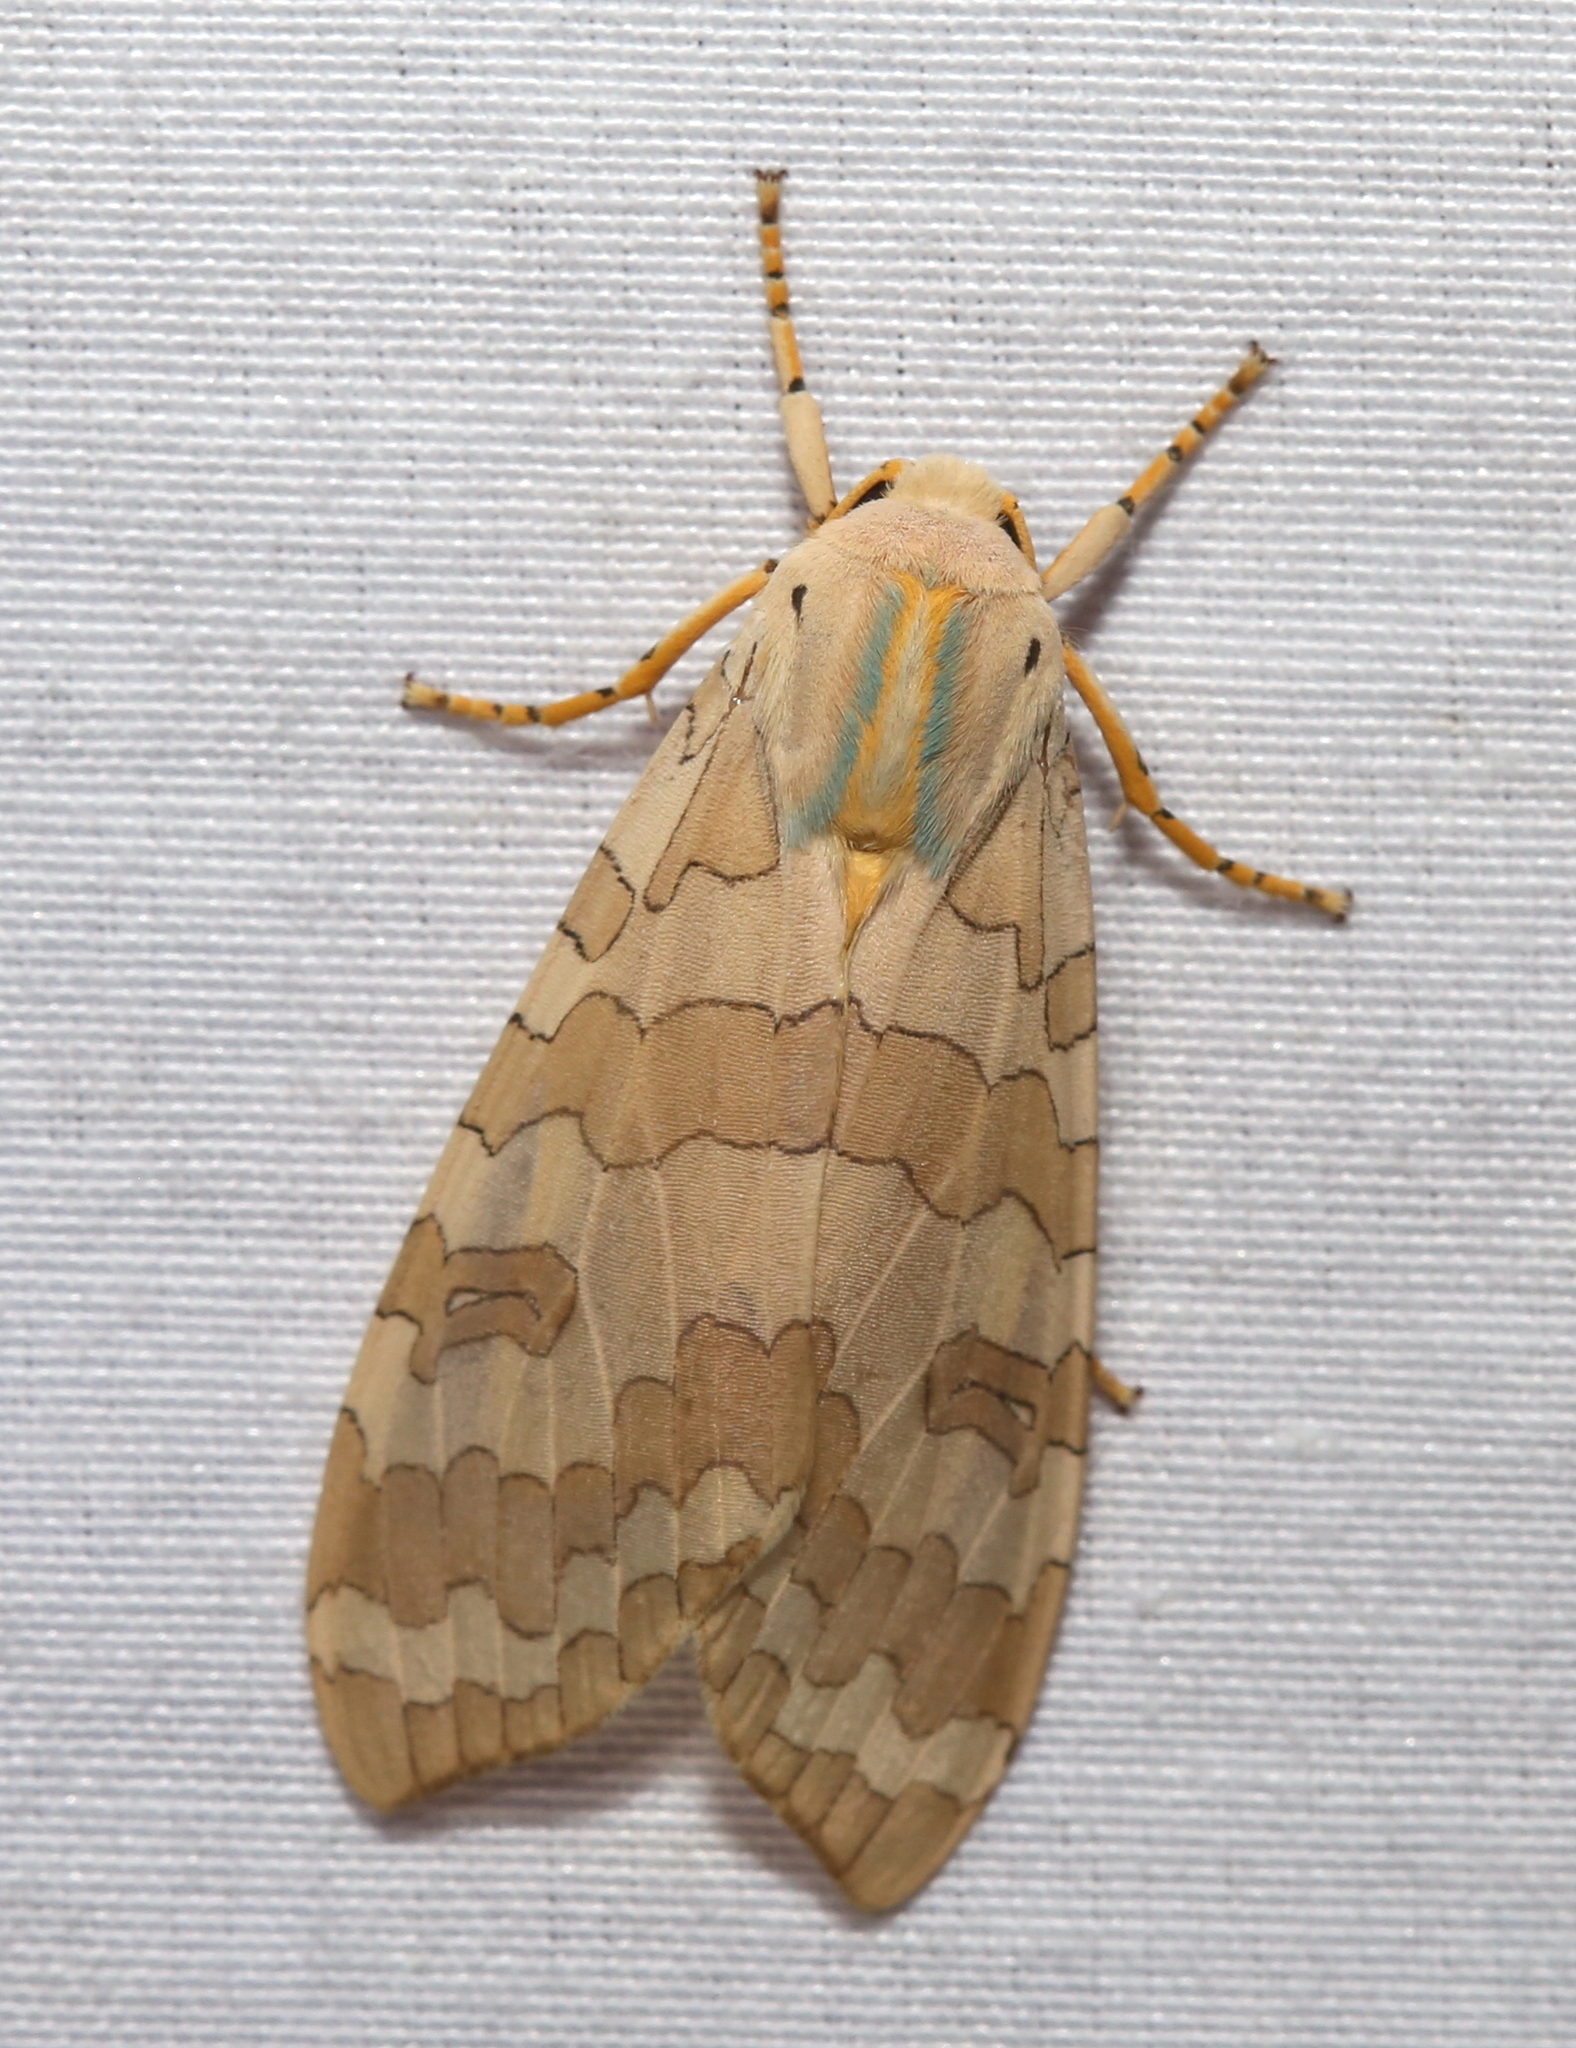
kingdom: Animalia
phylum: Arthropoda
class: Insecta
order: Lepidoptera
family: Erebidae
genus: Halysidota
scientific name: Halysidota
